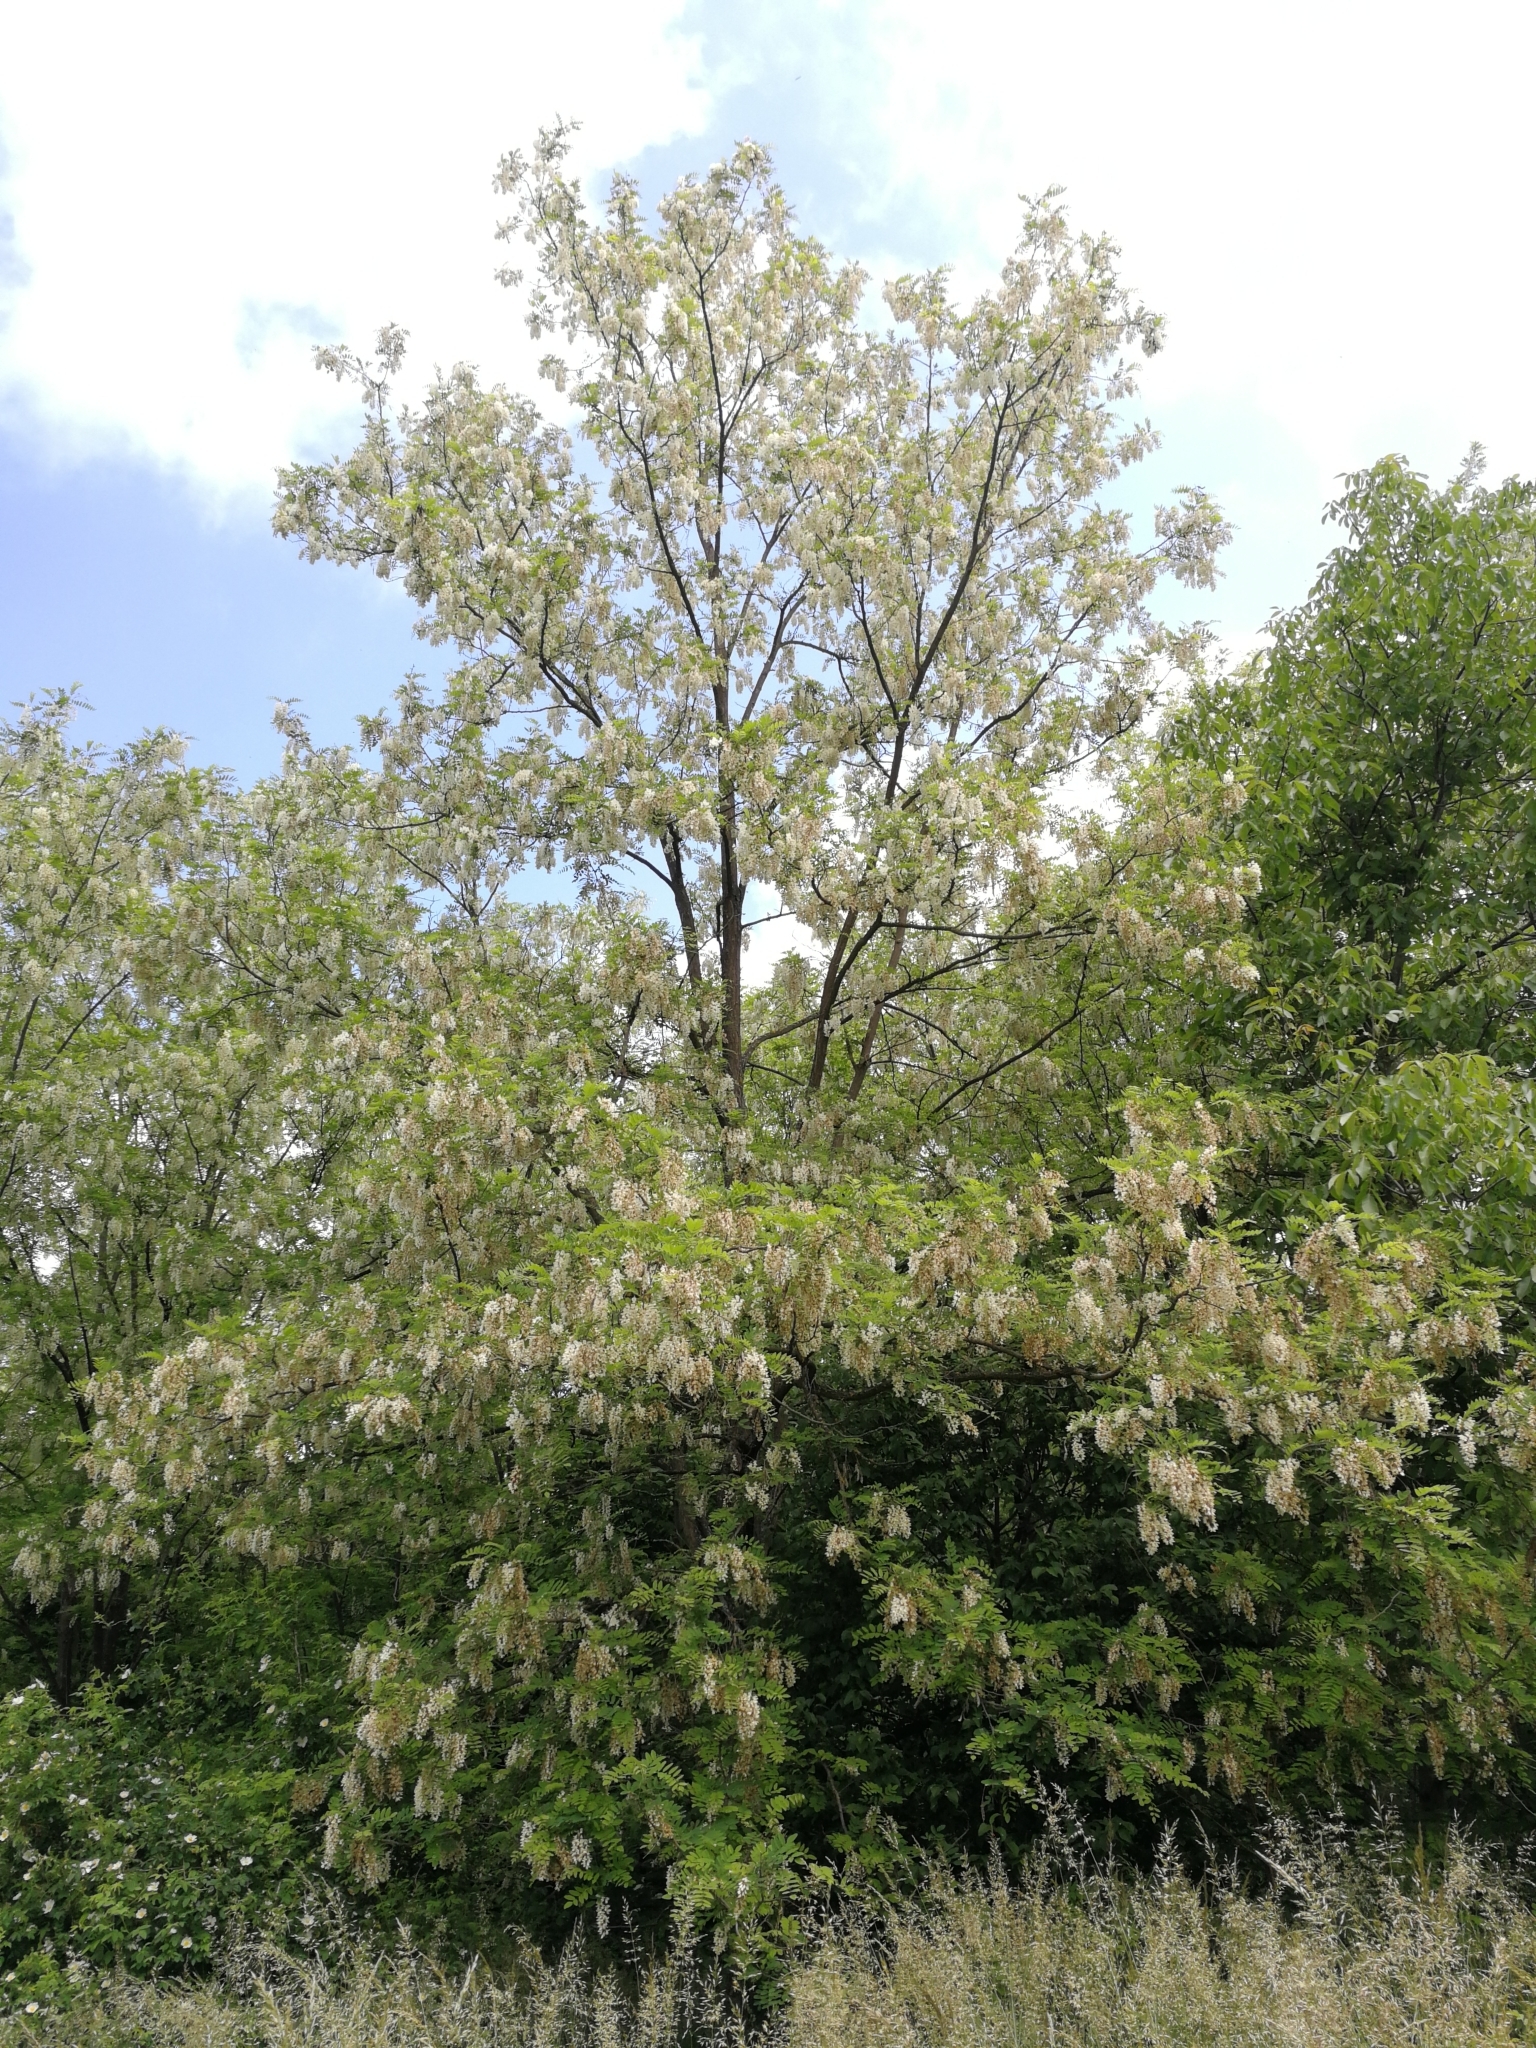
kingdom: Plantae
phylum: Tracheophyta
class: Magnoliopsida
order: Fabales
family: Fabaceae
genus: Robinia
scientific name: Robinia pseudoacacia
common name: Black locust
